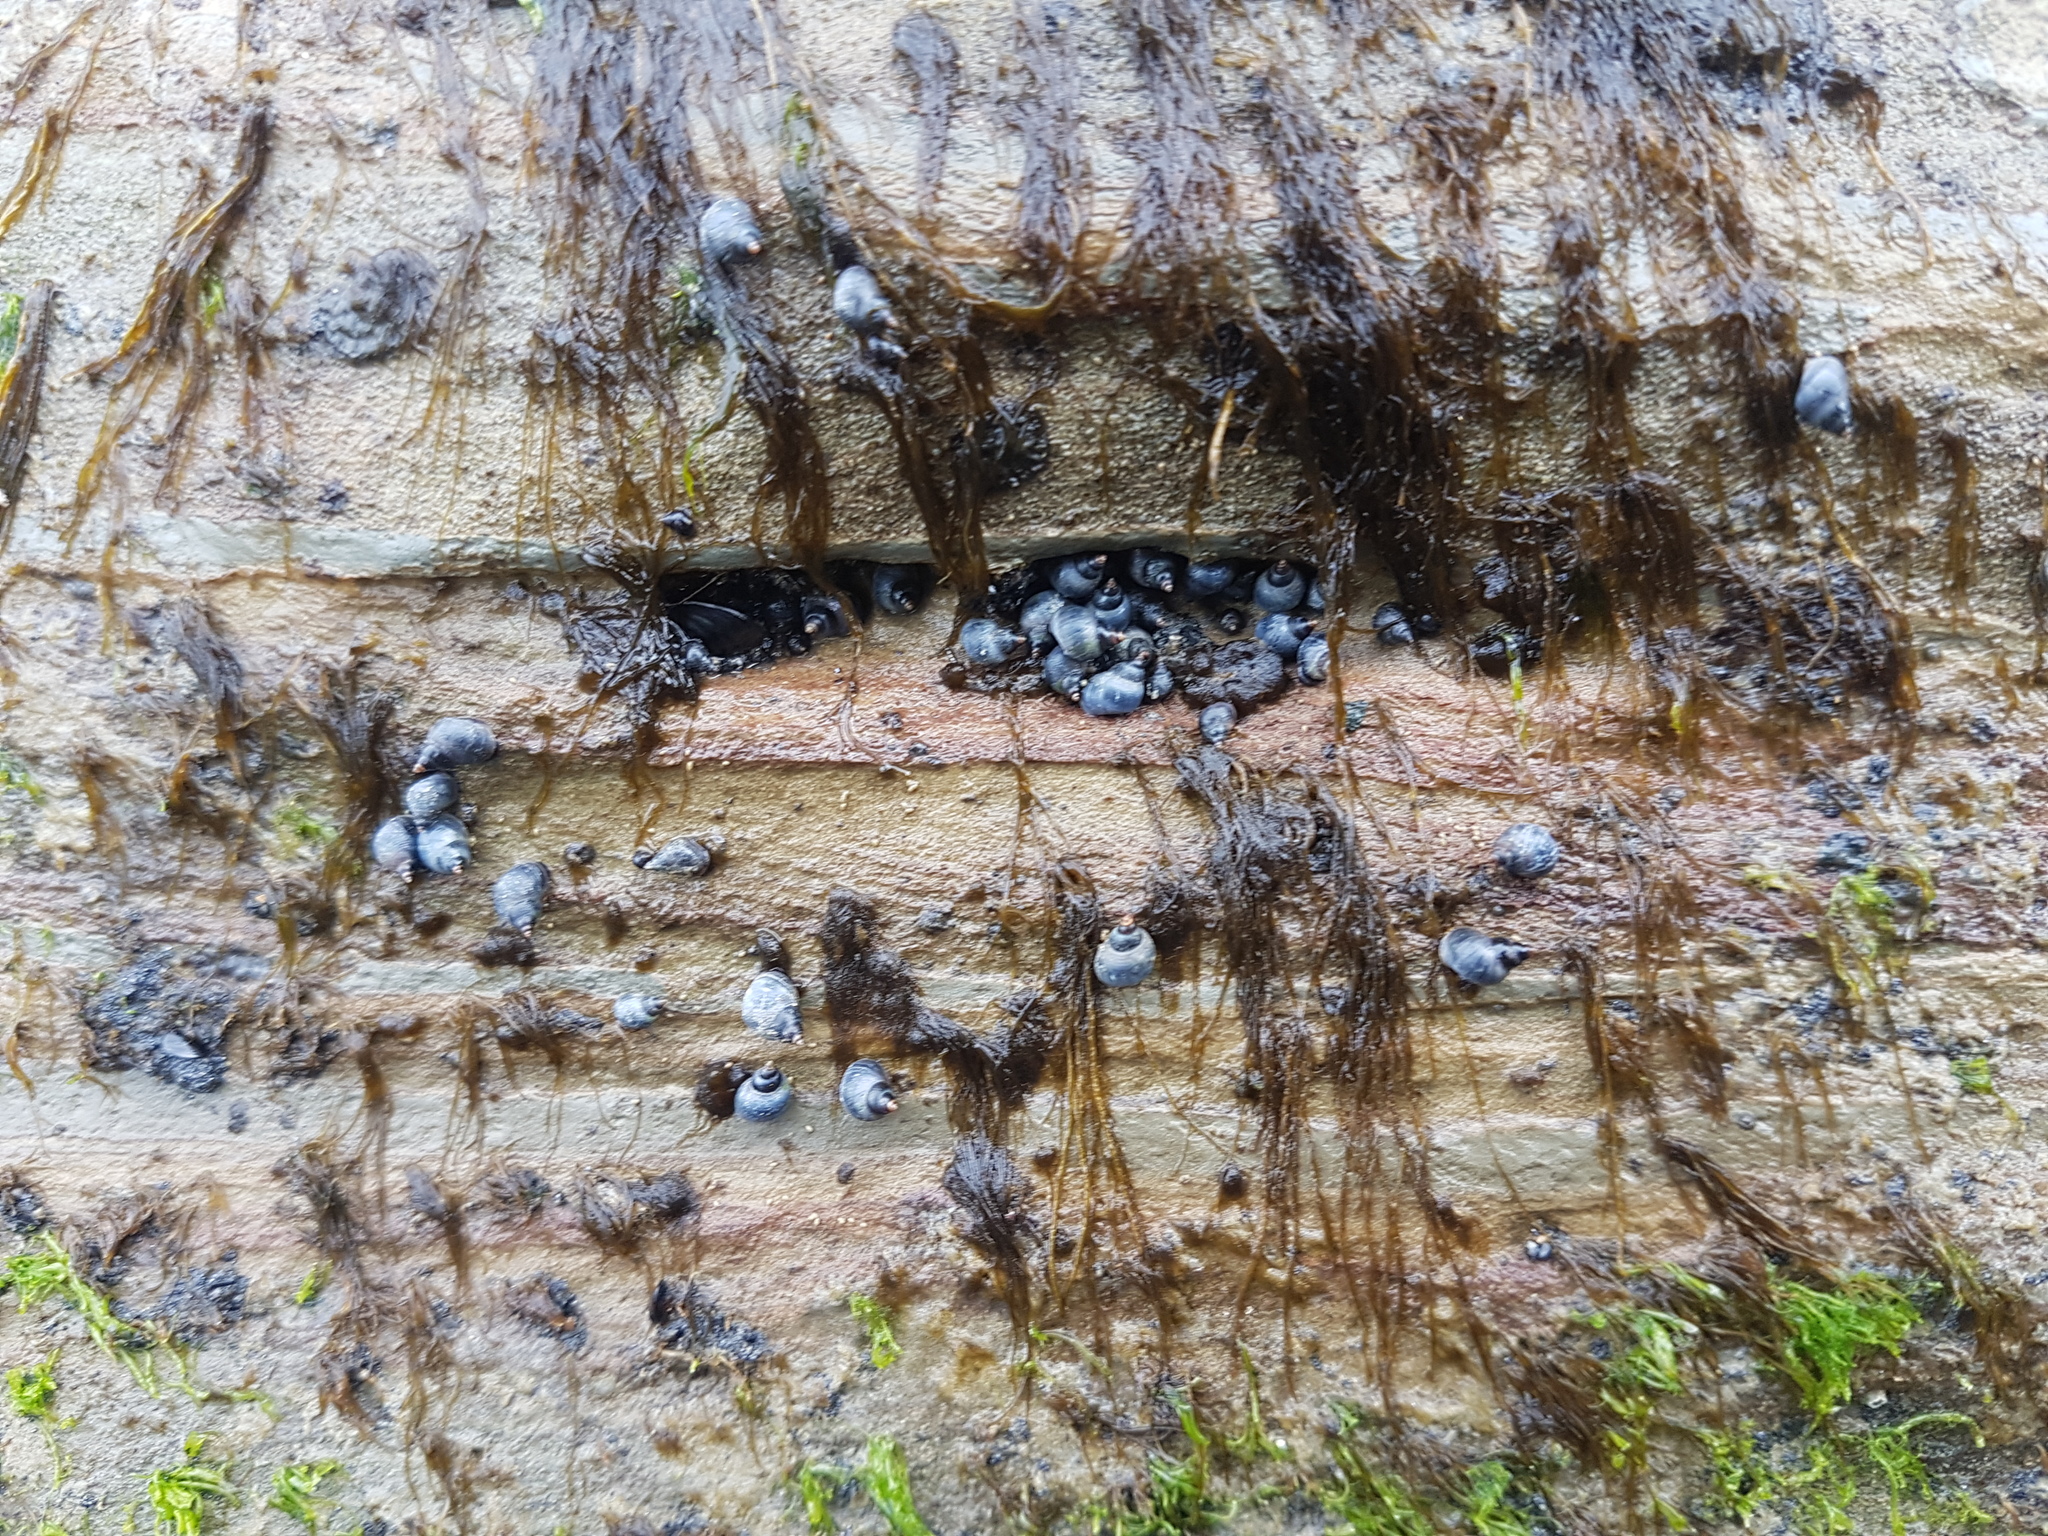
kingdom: Animalia
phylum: Mollusca
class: Gastropoda
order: Littorinimorpha
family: Littorinidae
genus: Austrolittorina
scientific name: Austrolittorina antipodum
